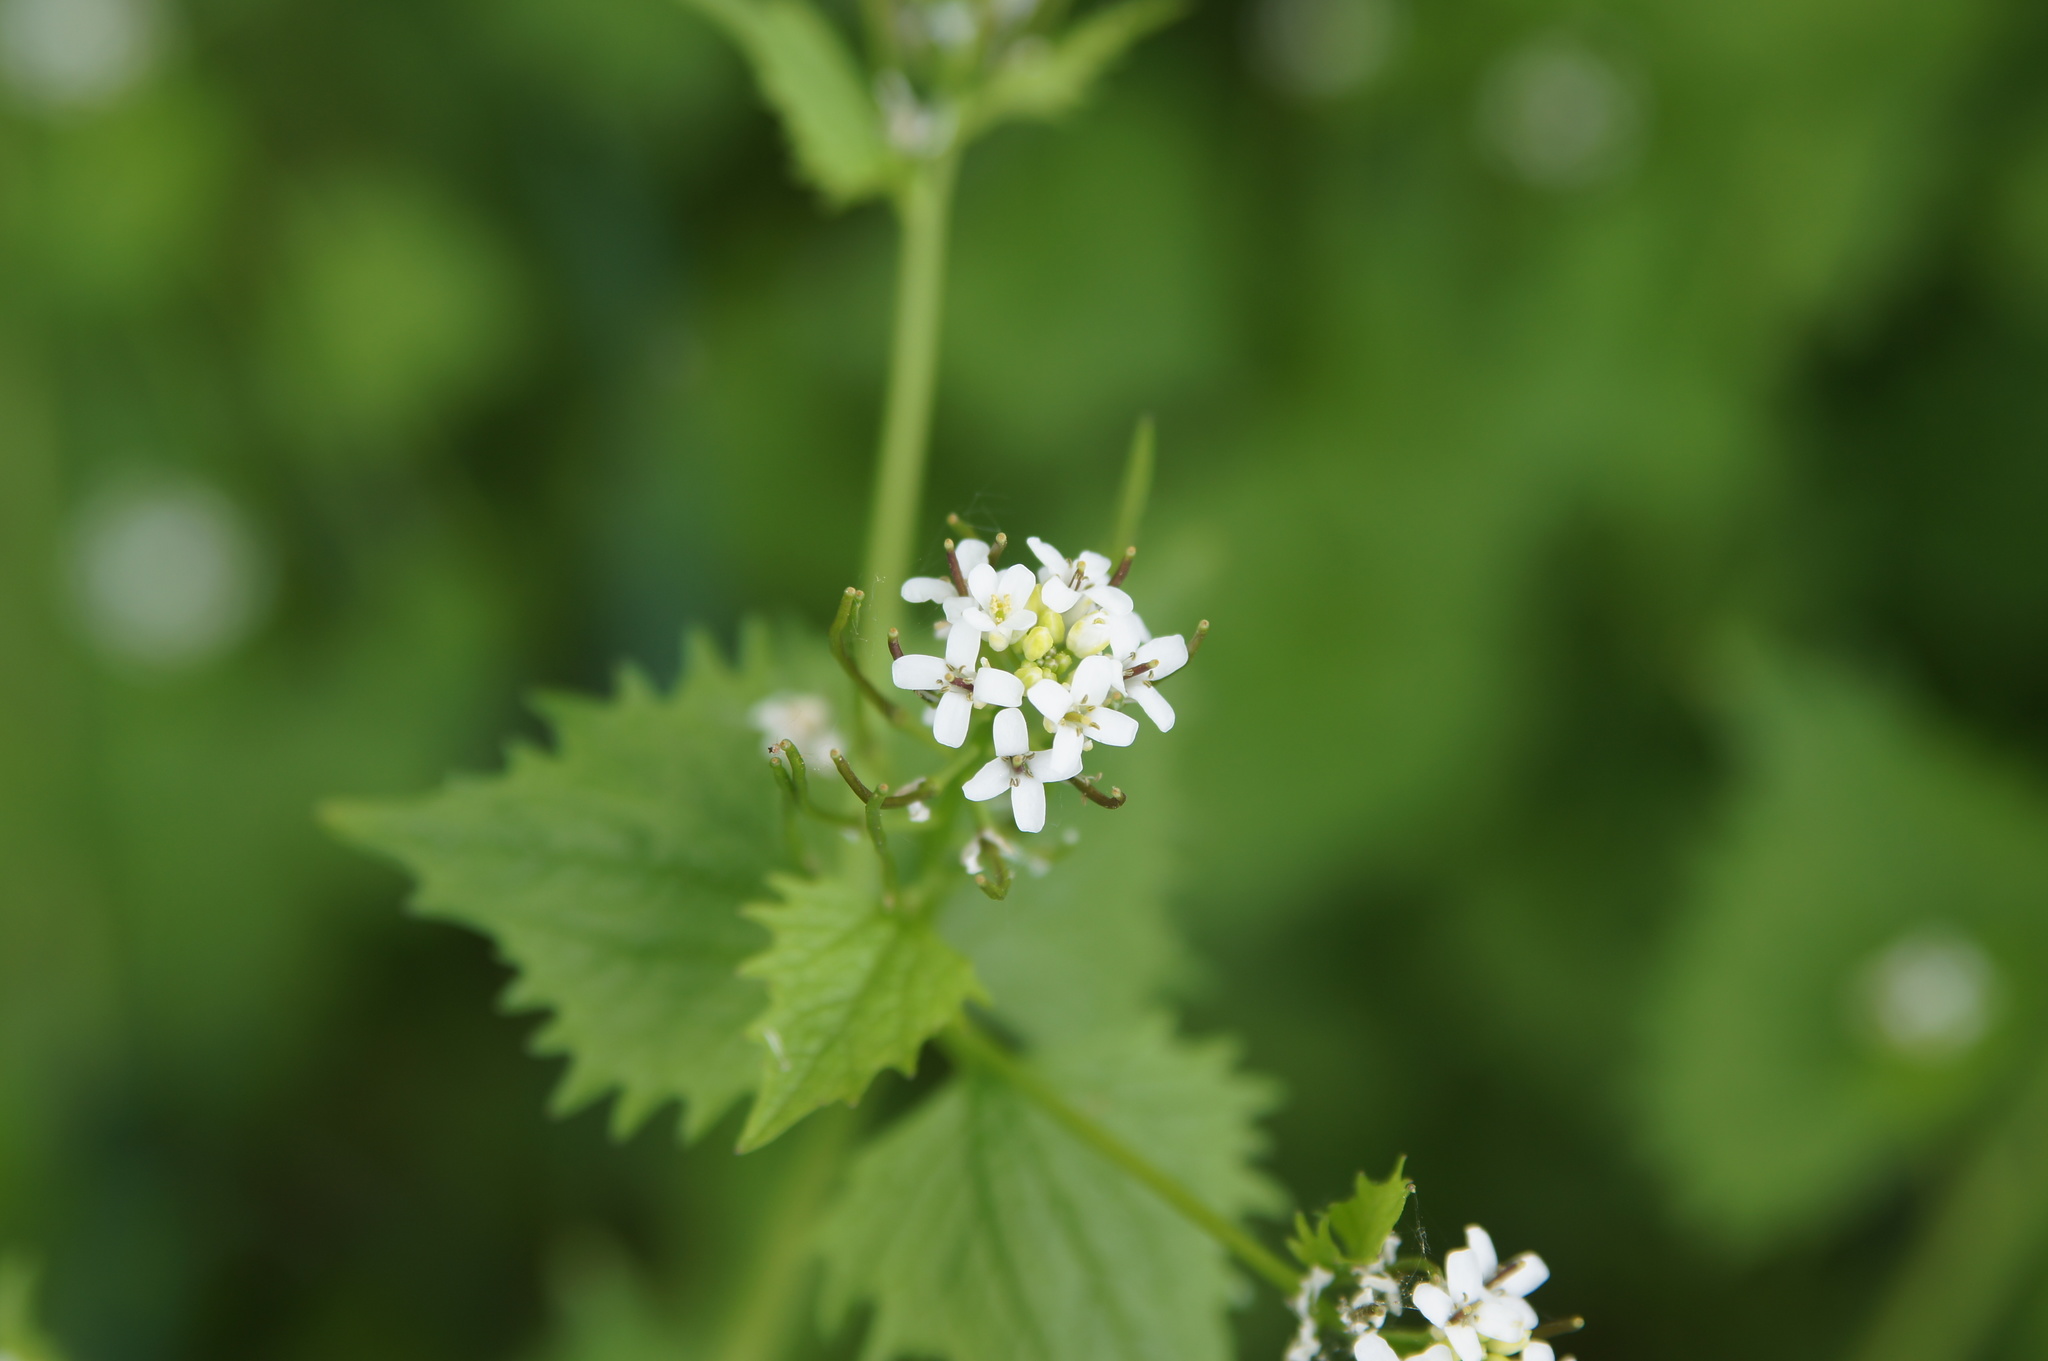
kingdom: Plantae
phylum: Tracheophyta
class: Magnoliopsida
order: Brassicales
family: Brassicaceae
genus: Alliaria
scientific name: Alliaria petiolata
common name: Garlic mustard
